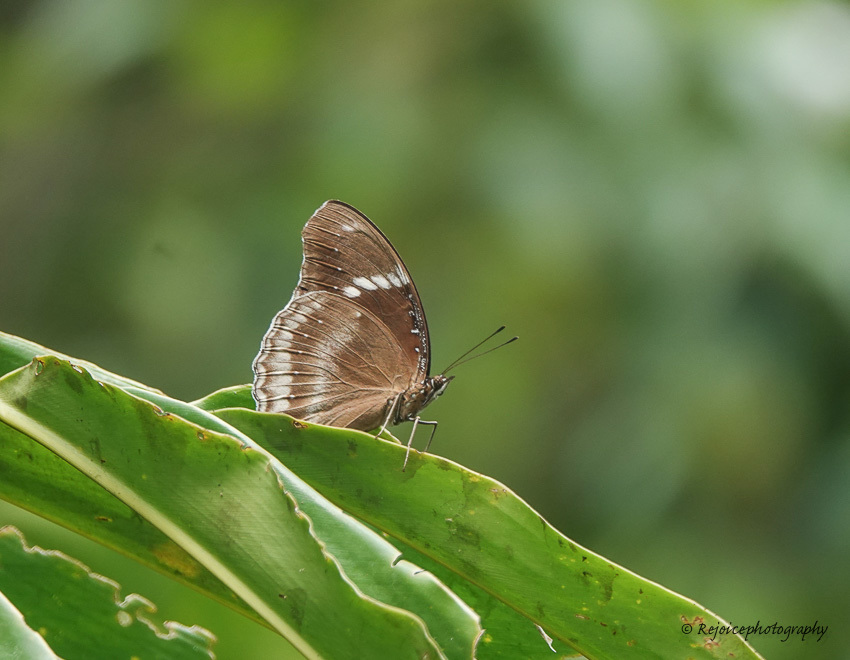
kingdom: Animalia
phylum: Arthropoda
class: Insecta
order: Lepidoptera
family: Nymphalidae
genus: Hypolimnas
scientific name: Hypolimnas bolina
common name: Great eggfly
